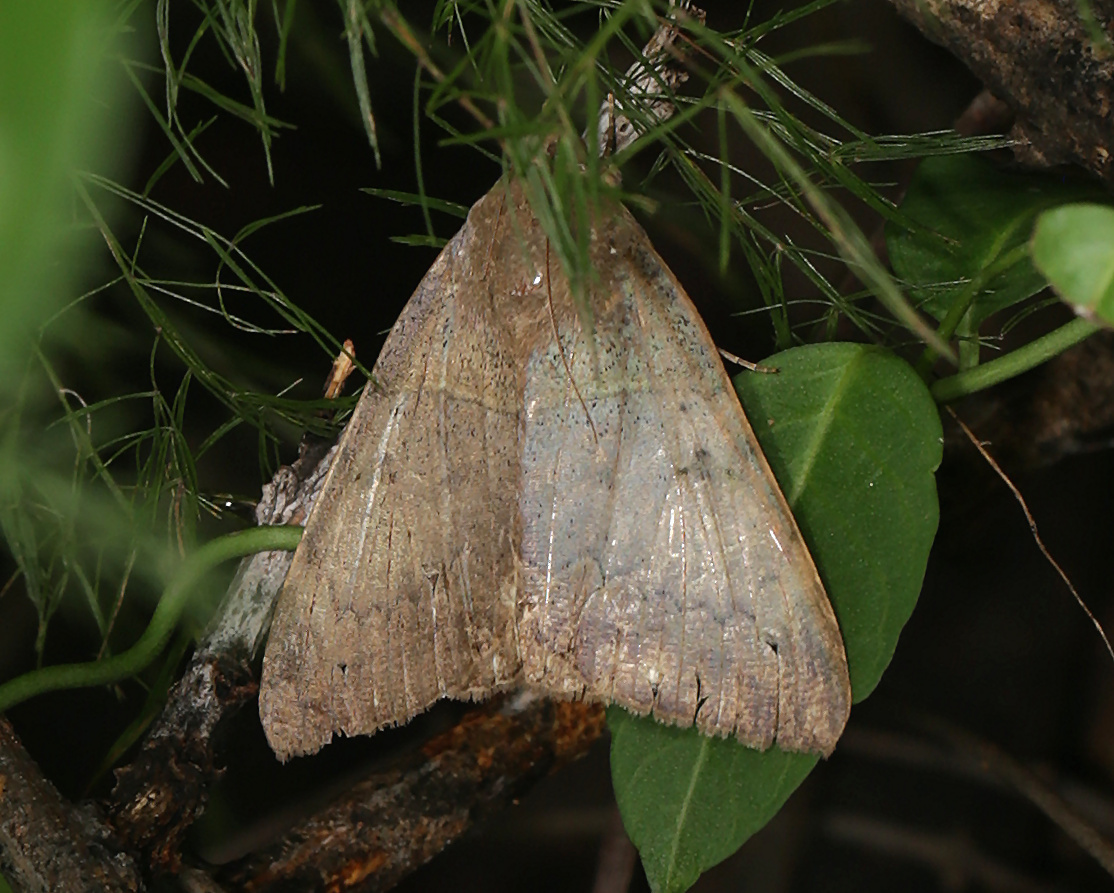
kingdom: Animalia
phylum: Arthropoda
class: Insecta
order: Lepidoptera
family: Erebidae
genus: Achaea
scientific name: Achaea lienardi
